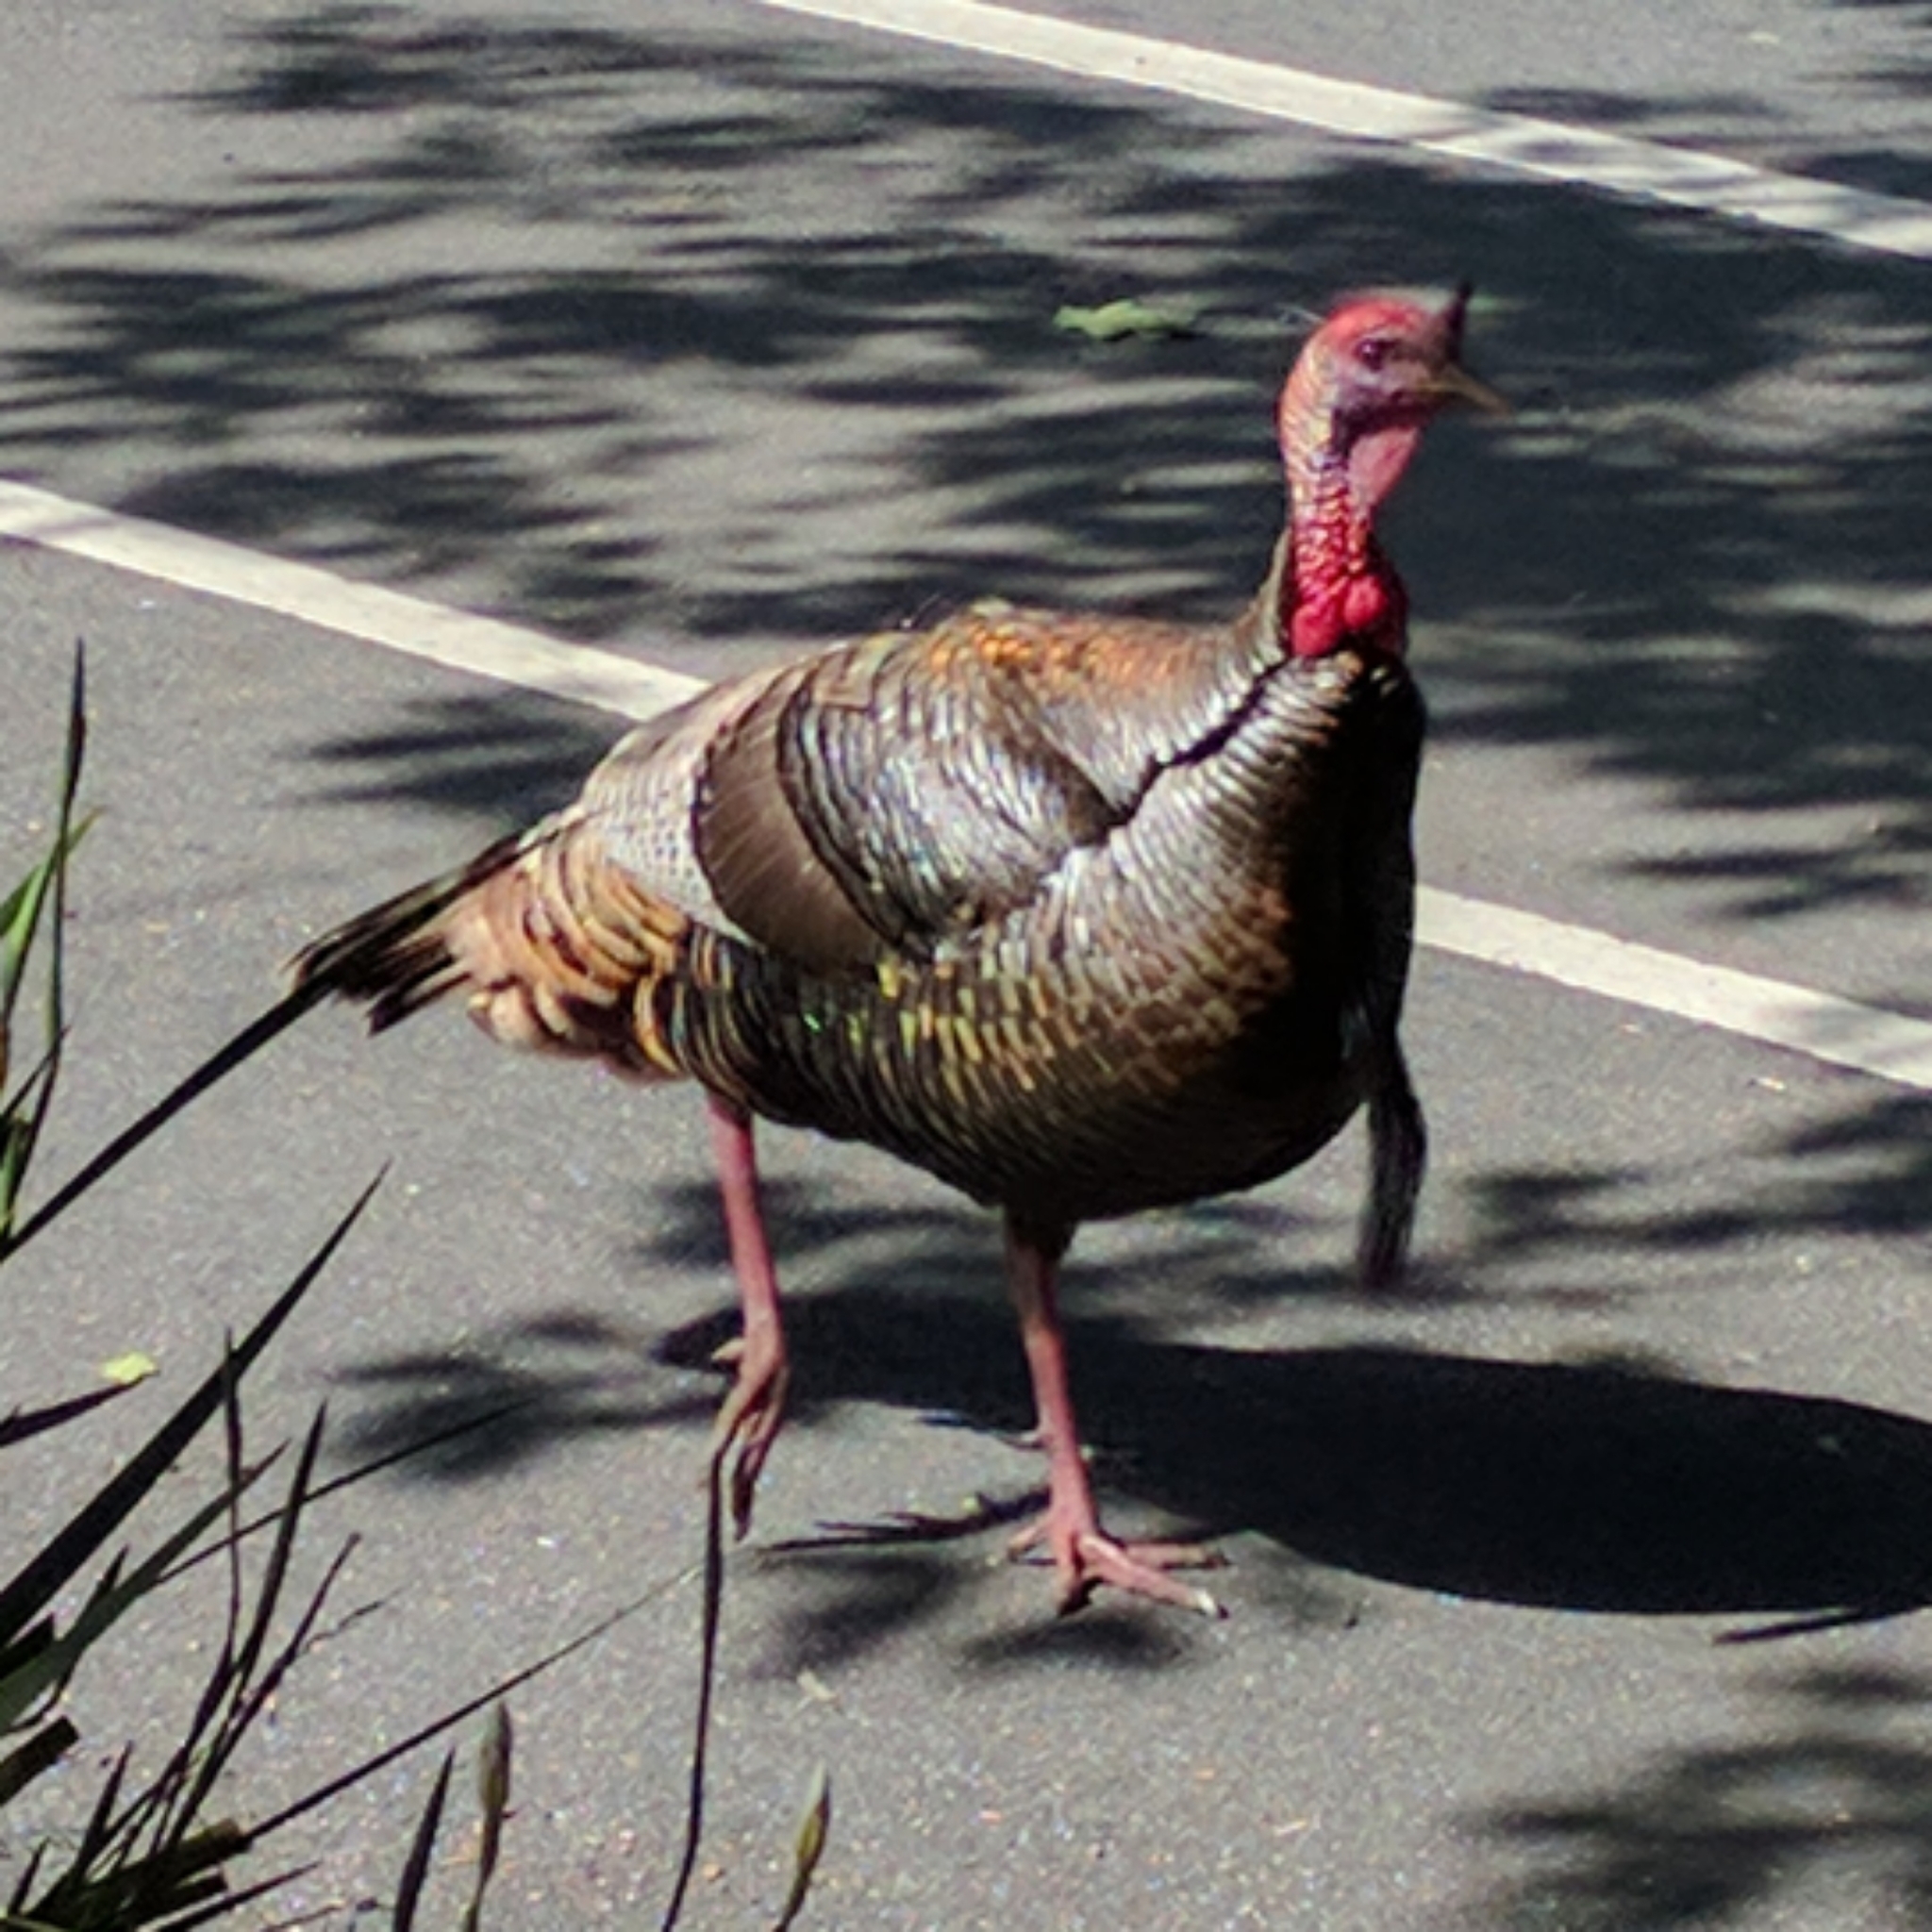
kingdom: Animalia
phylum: Chordata
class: Aves
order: Galliformes
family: Phasianidae
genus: Meleagris
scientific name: Meleagris gallopavo
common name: Wild turkey
